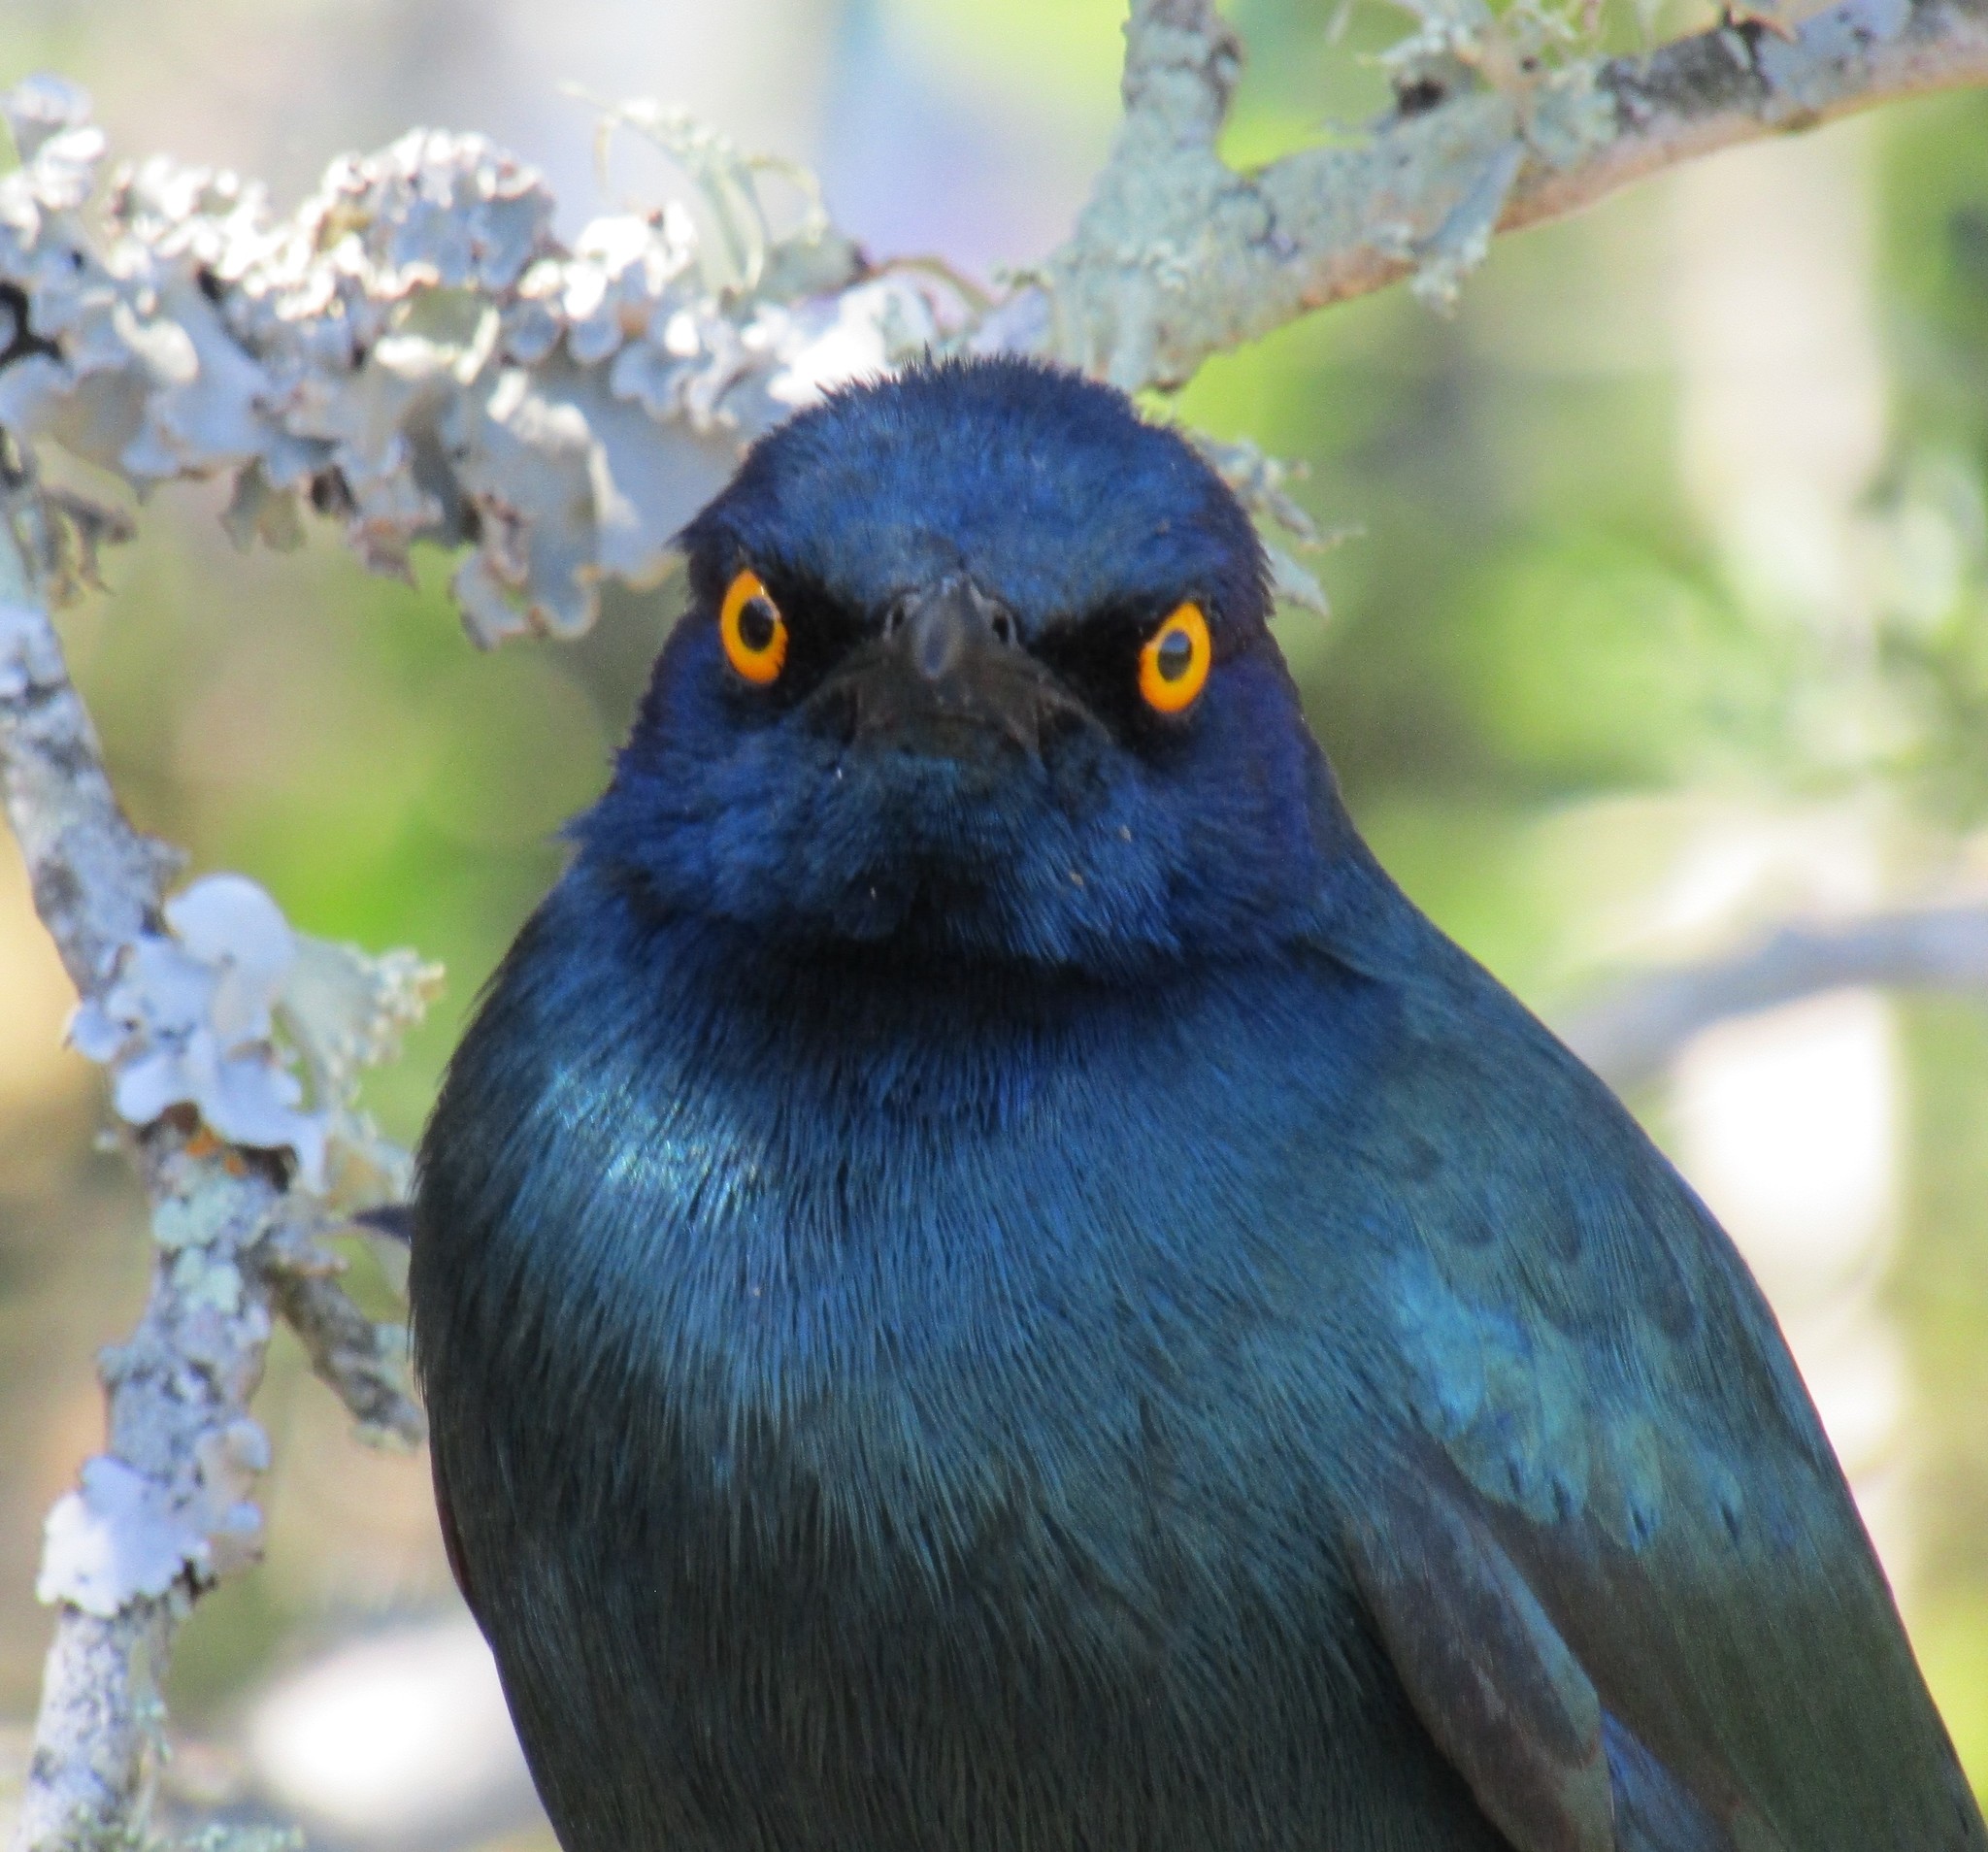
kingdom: Animalia
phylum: Chordata
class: Aves
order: Passeriformes
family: Sturnidae
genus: Lamprotornis
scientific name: Lamprotornis nitens
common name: Cape starling
